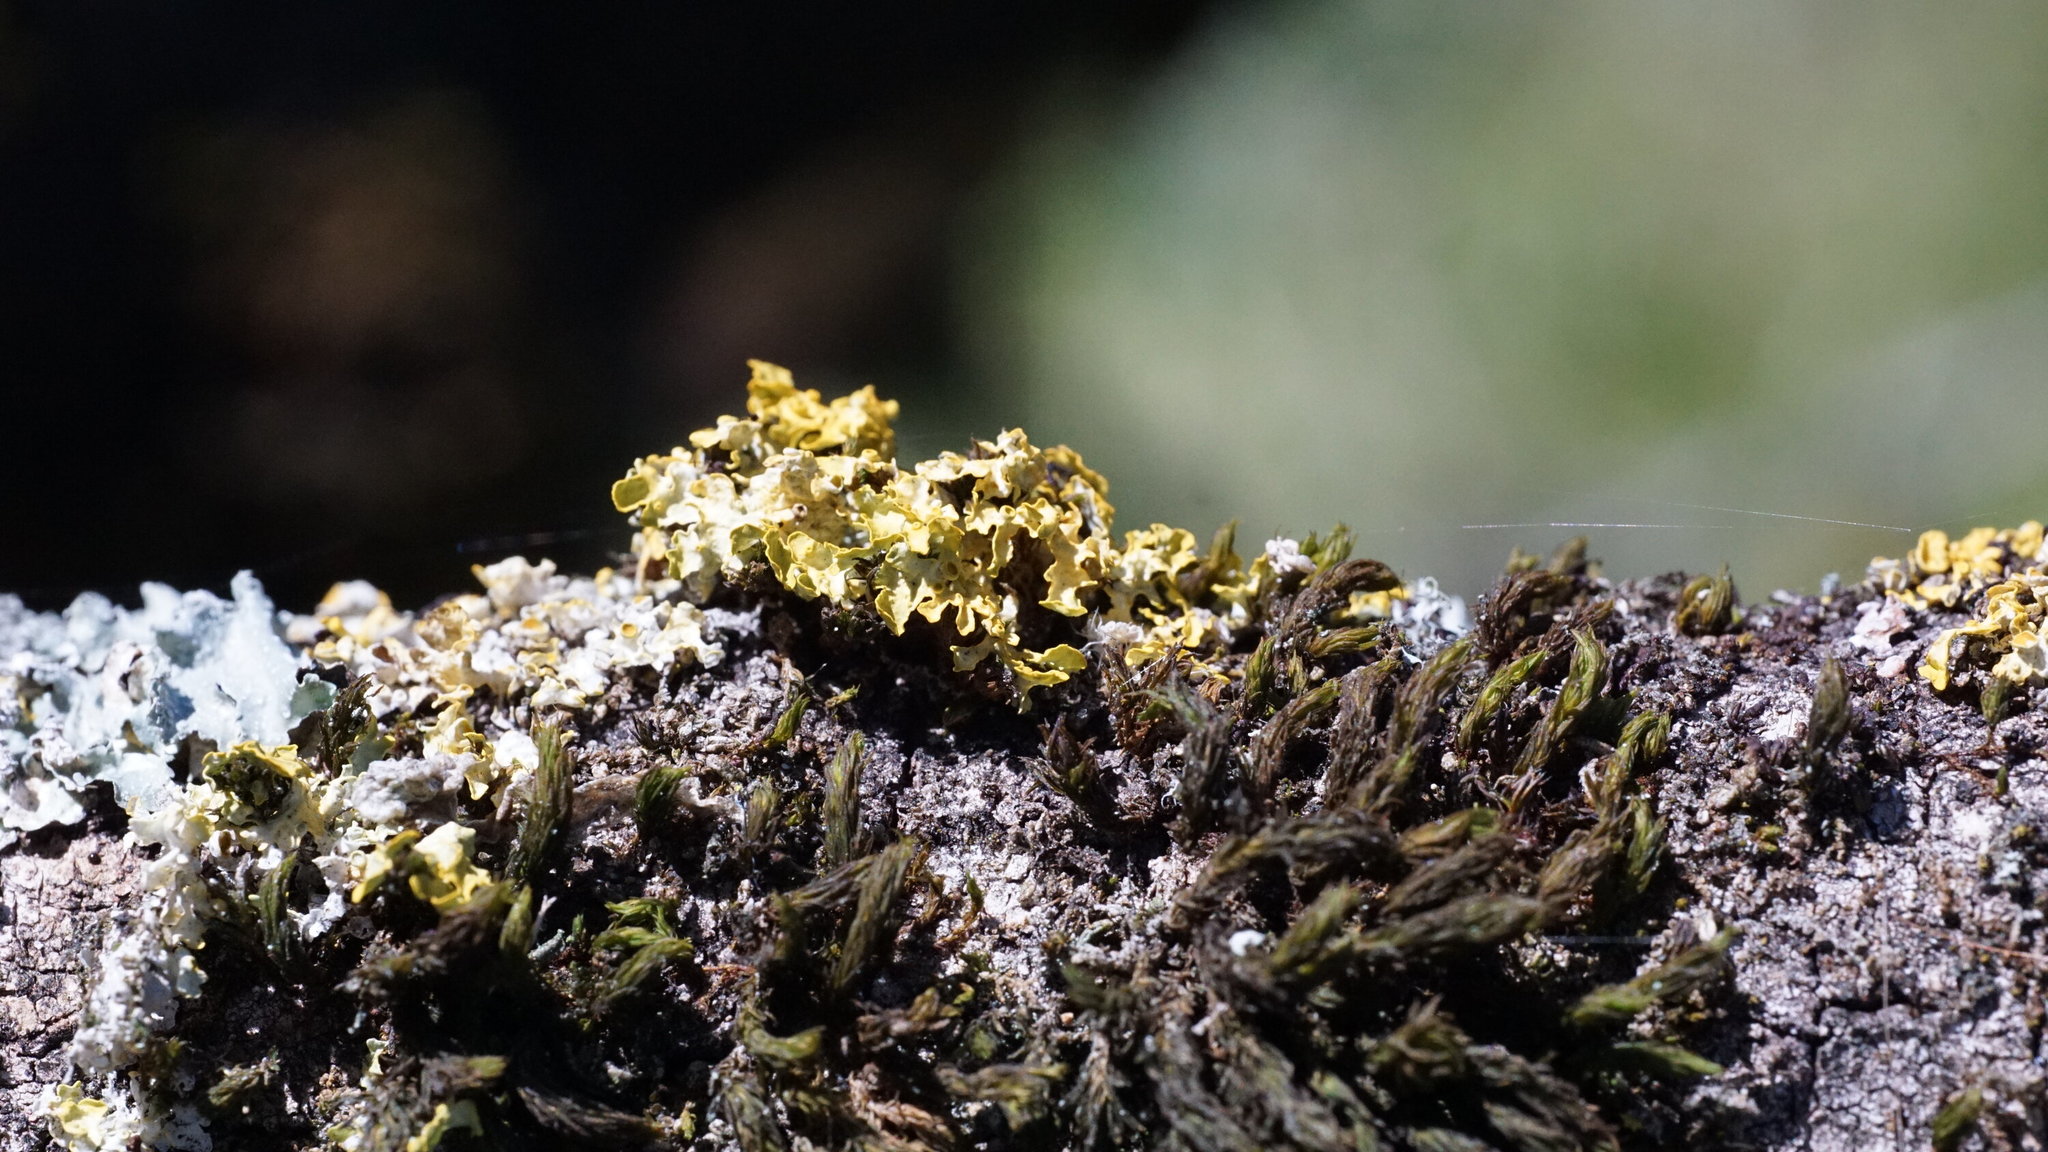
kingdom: Fungi
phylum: Ascomycota
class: Lecanoromycetes
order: Teloschistales
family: Teloschistaceae
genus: Xanthoria
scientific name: Xanthoria parietina
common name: Common orange lichen
